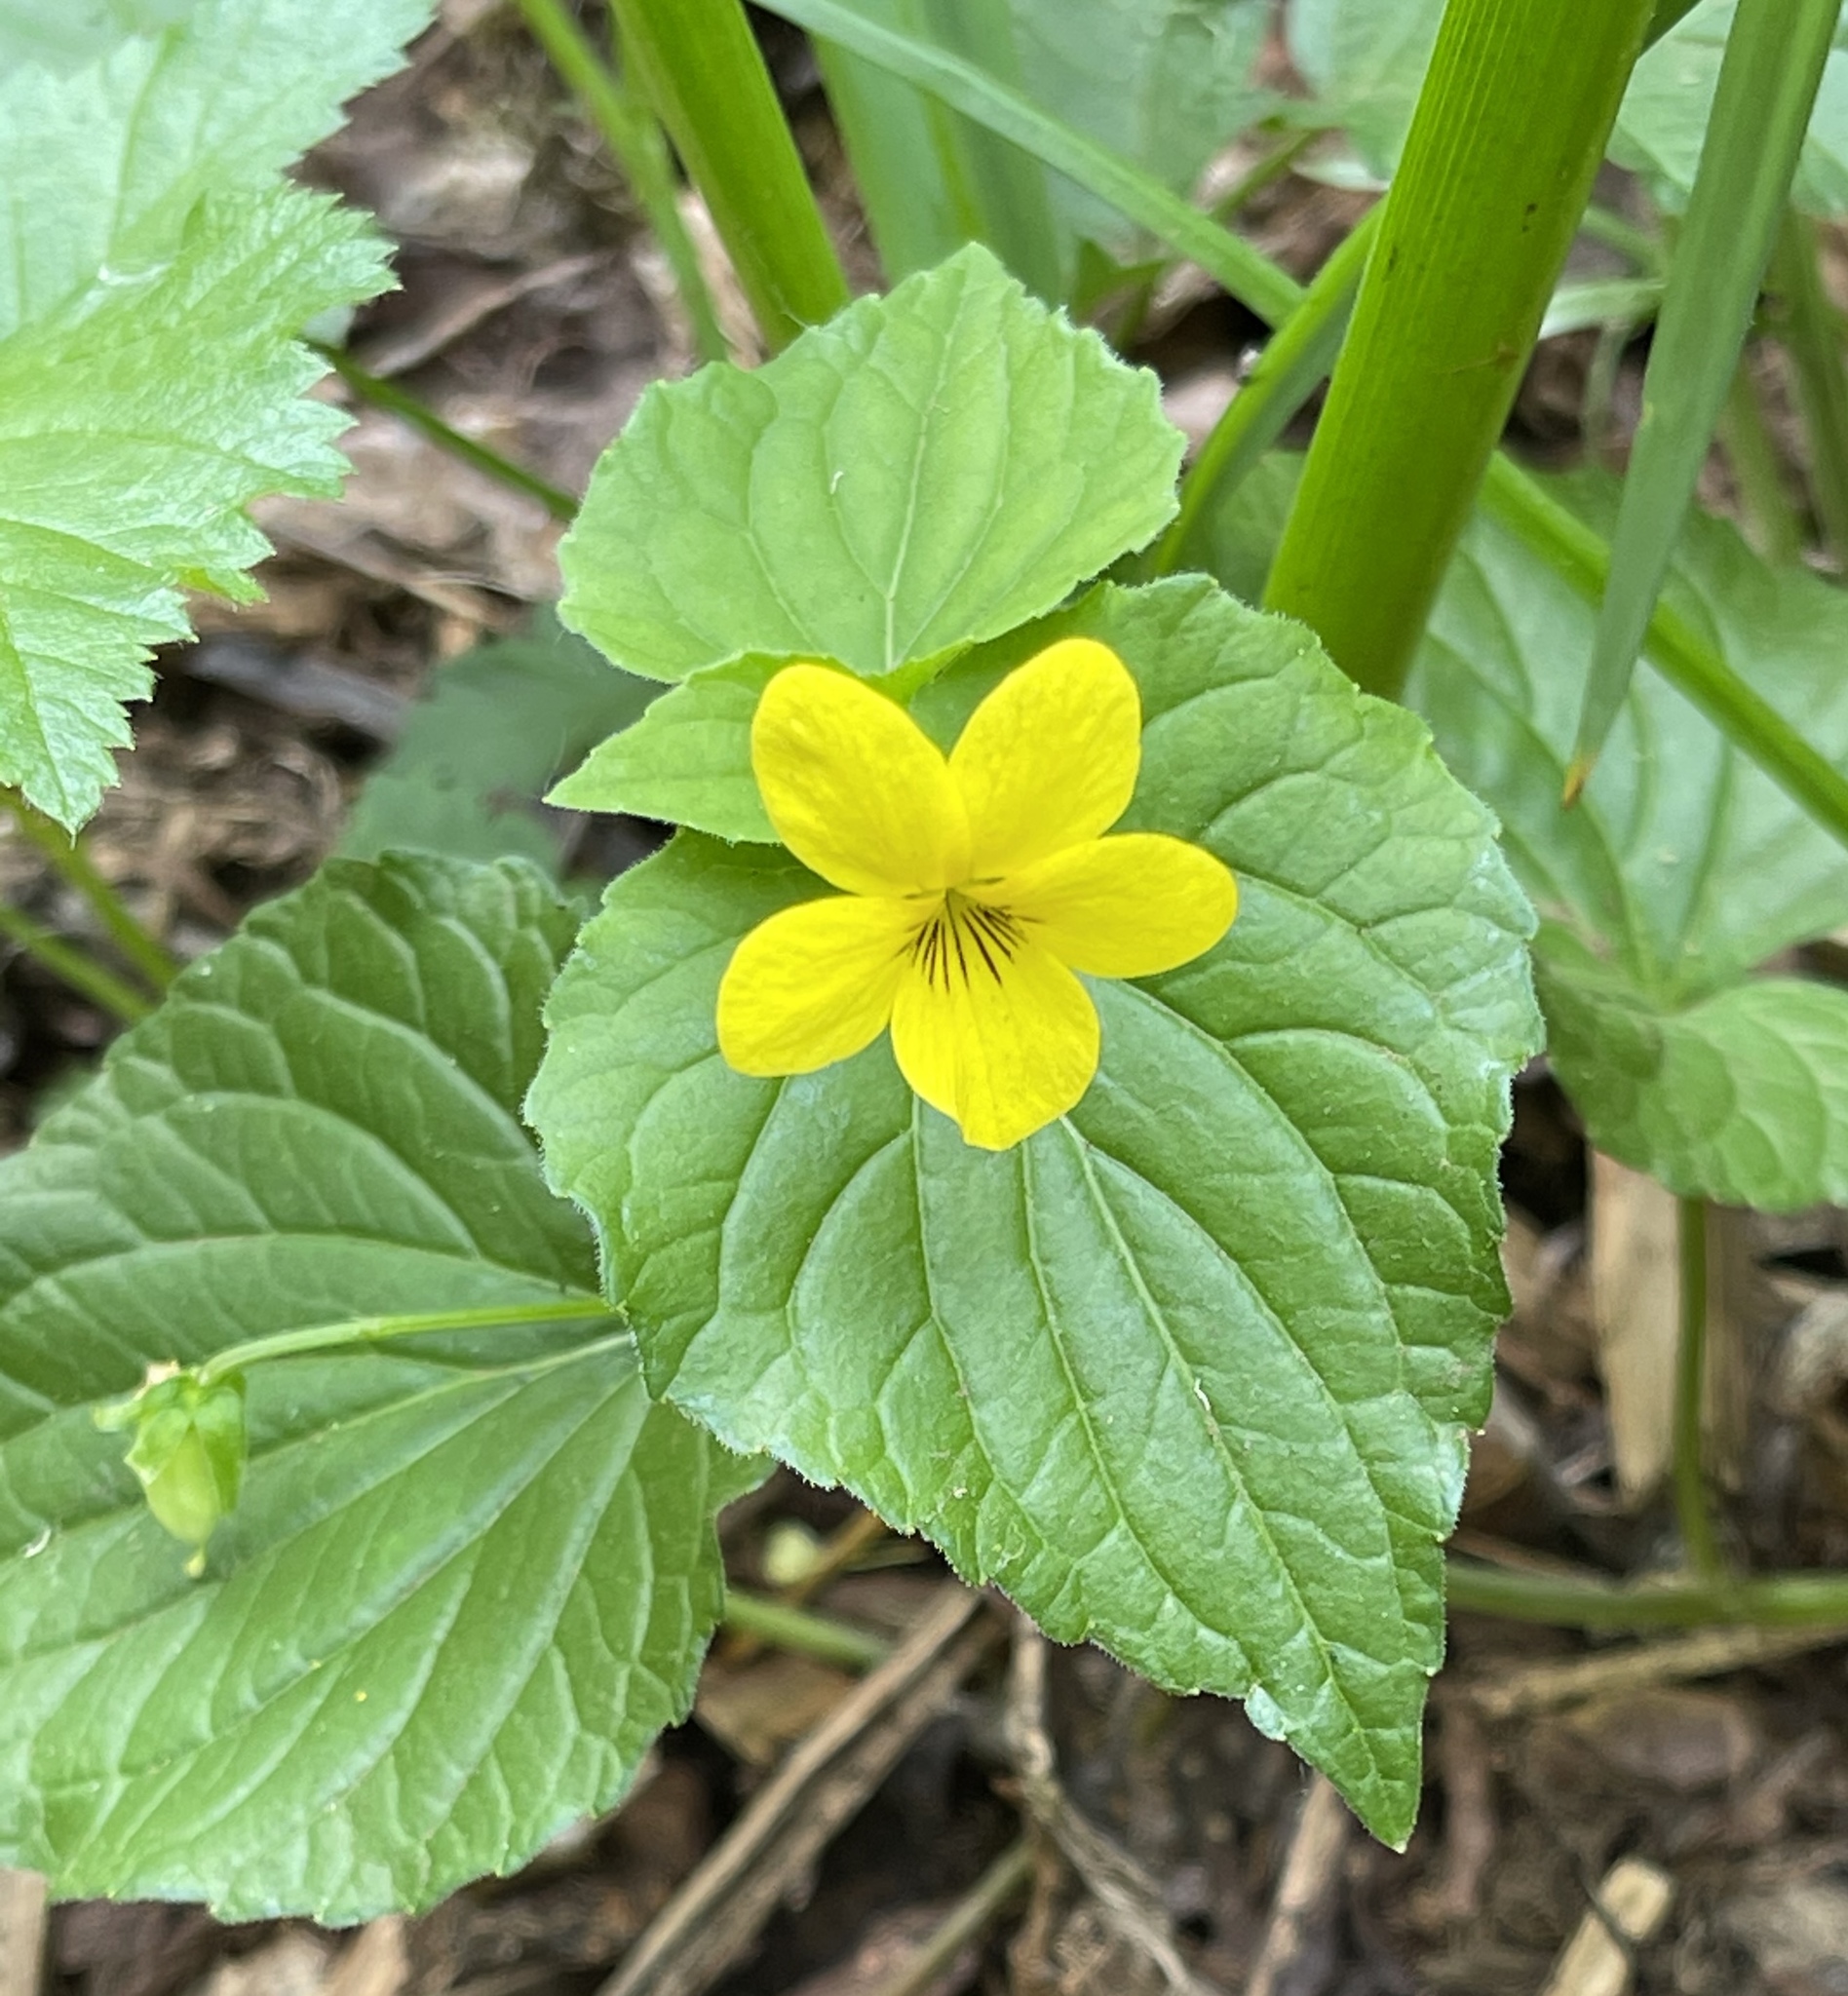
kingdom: Plantae
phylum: Tracheophyta
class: Magnoliopsida
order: Malpighiales
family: Violaceae
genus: Viola
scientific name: Viola glabella
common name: Stream violet
